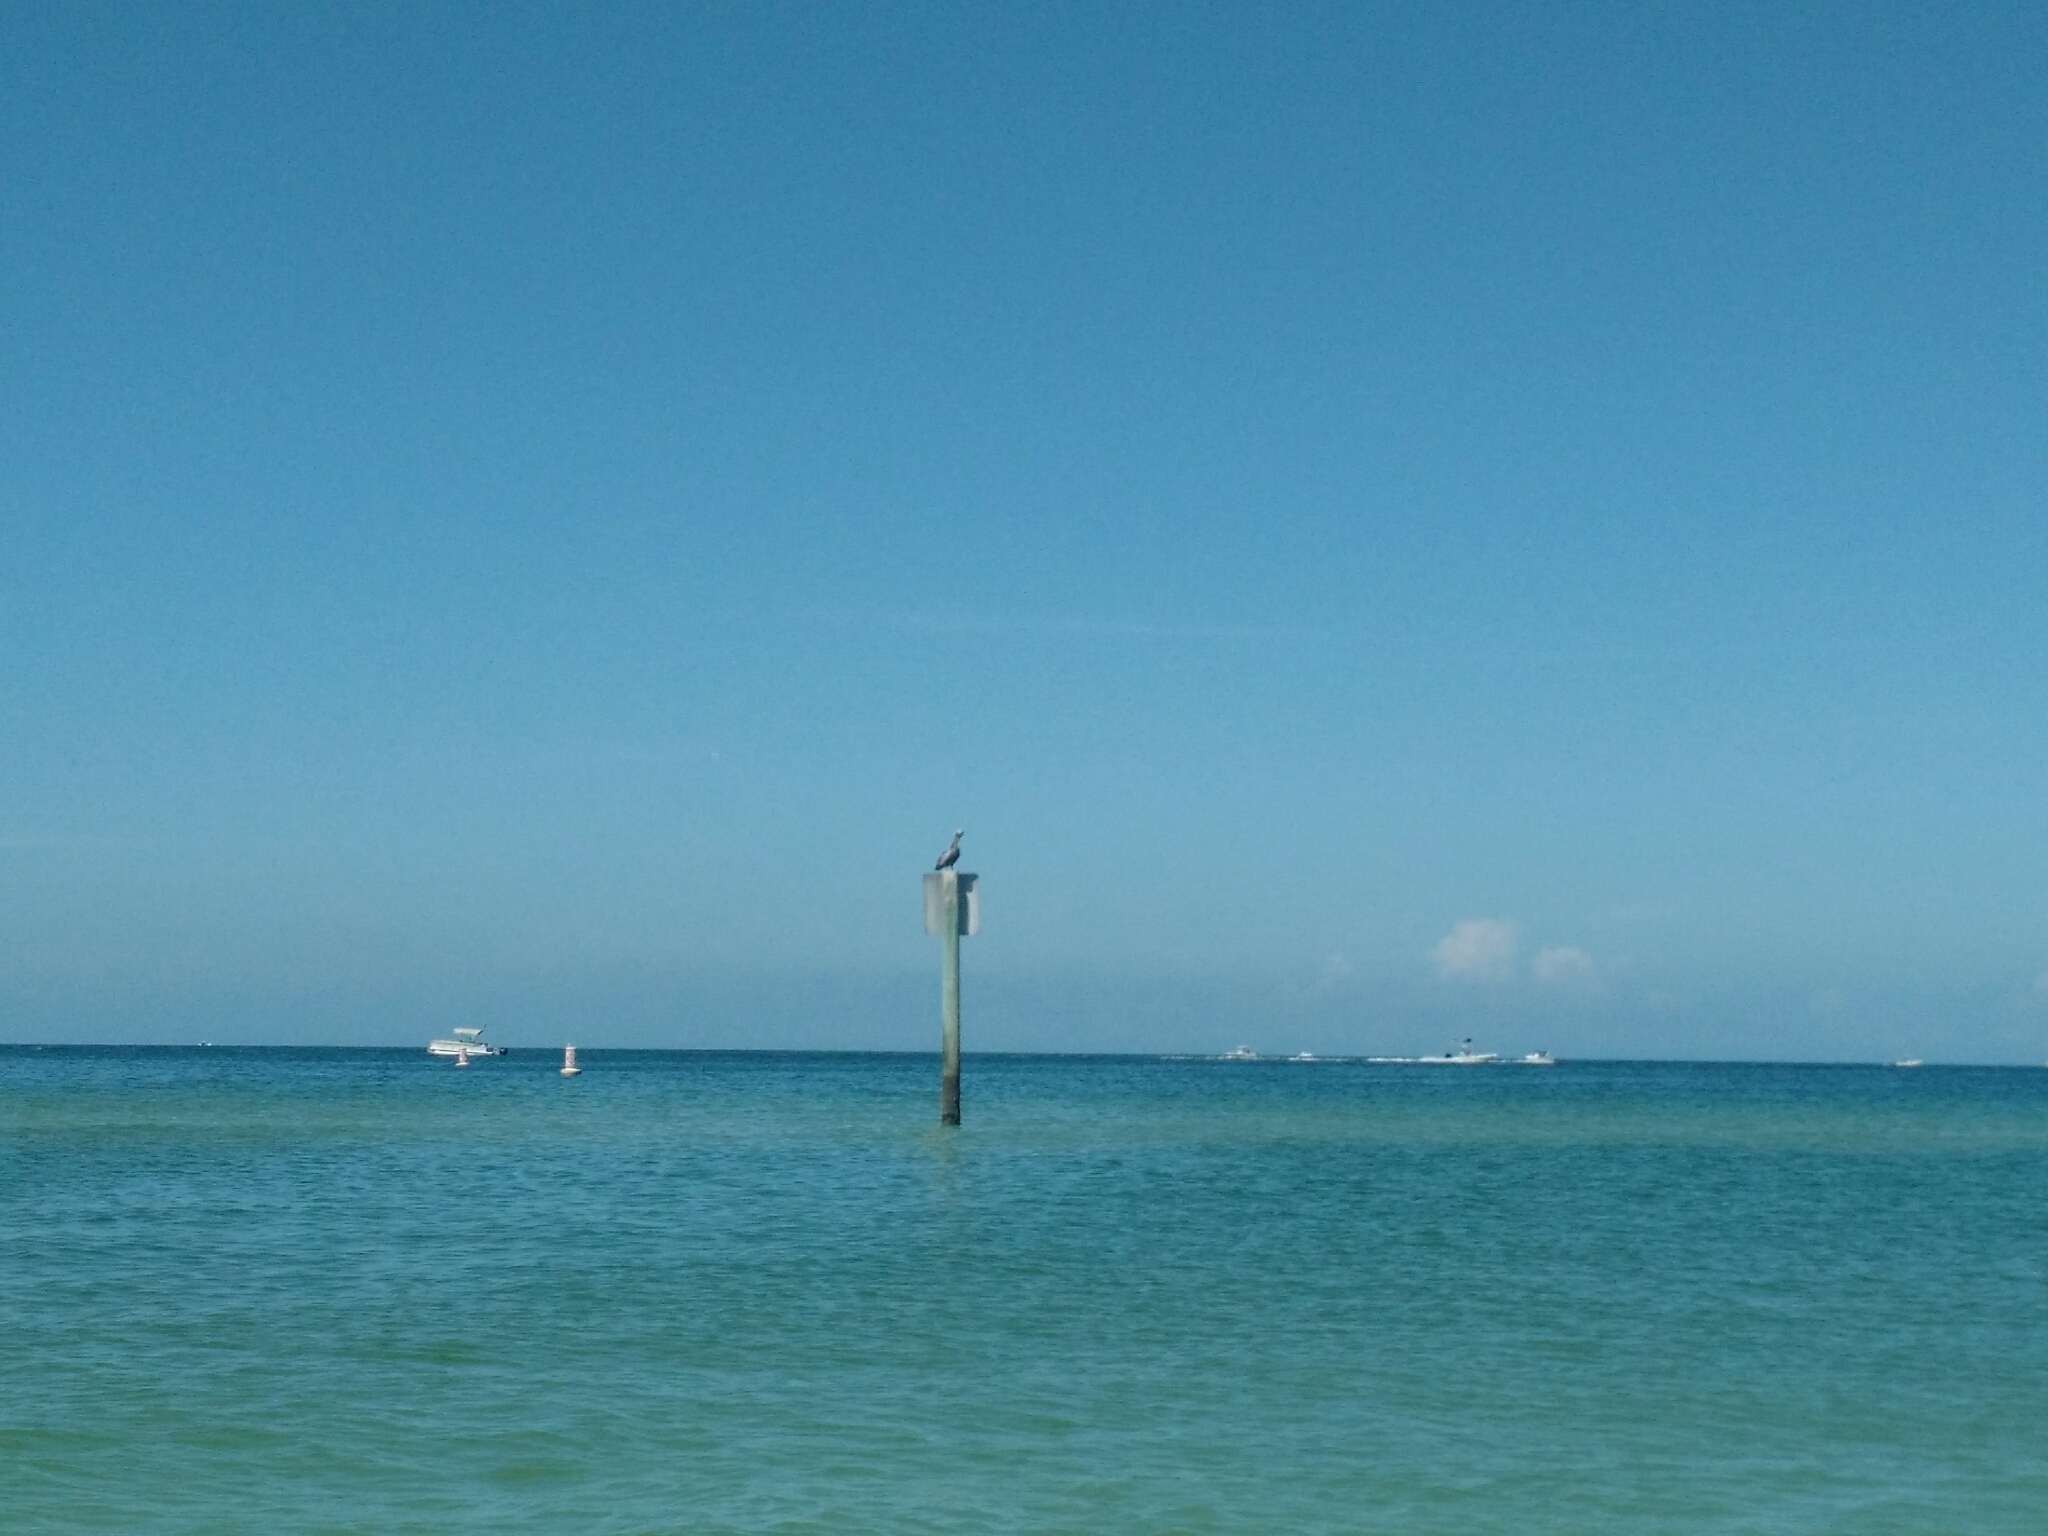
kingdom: Animalia
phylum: Chordata
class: Aves
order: Pelecaniformes
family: Pelecanidae
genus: Pelecanus
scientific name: Pelecanus occidentalis
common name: Brown pelican
